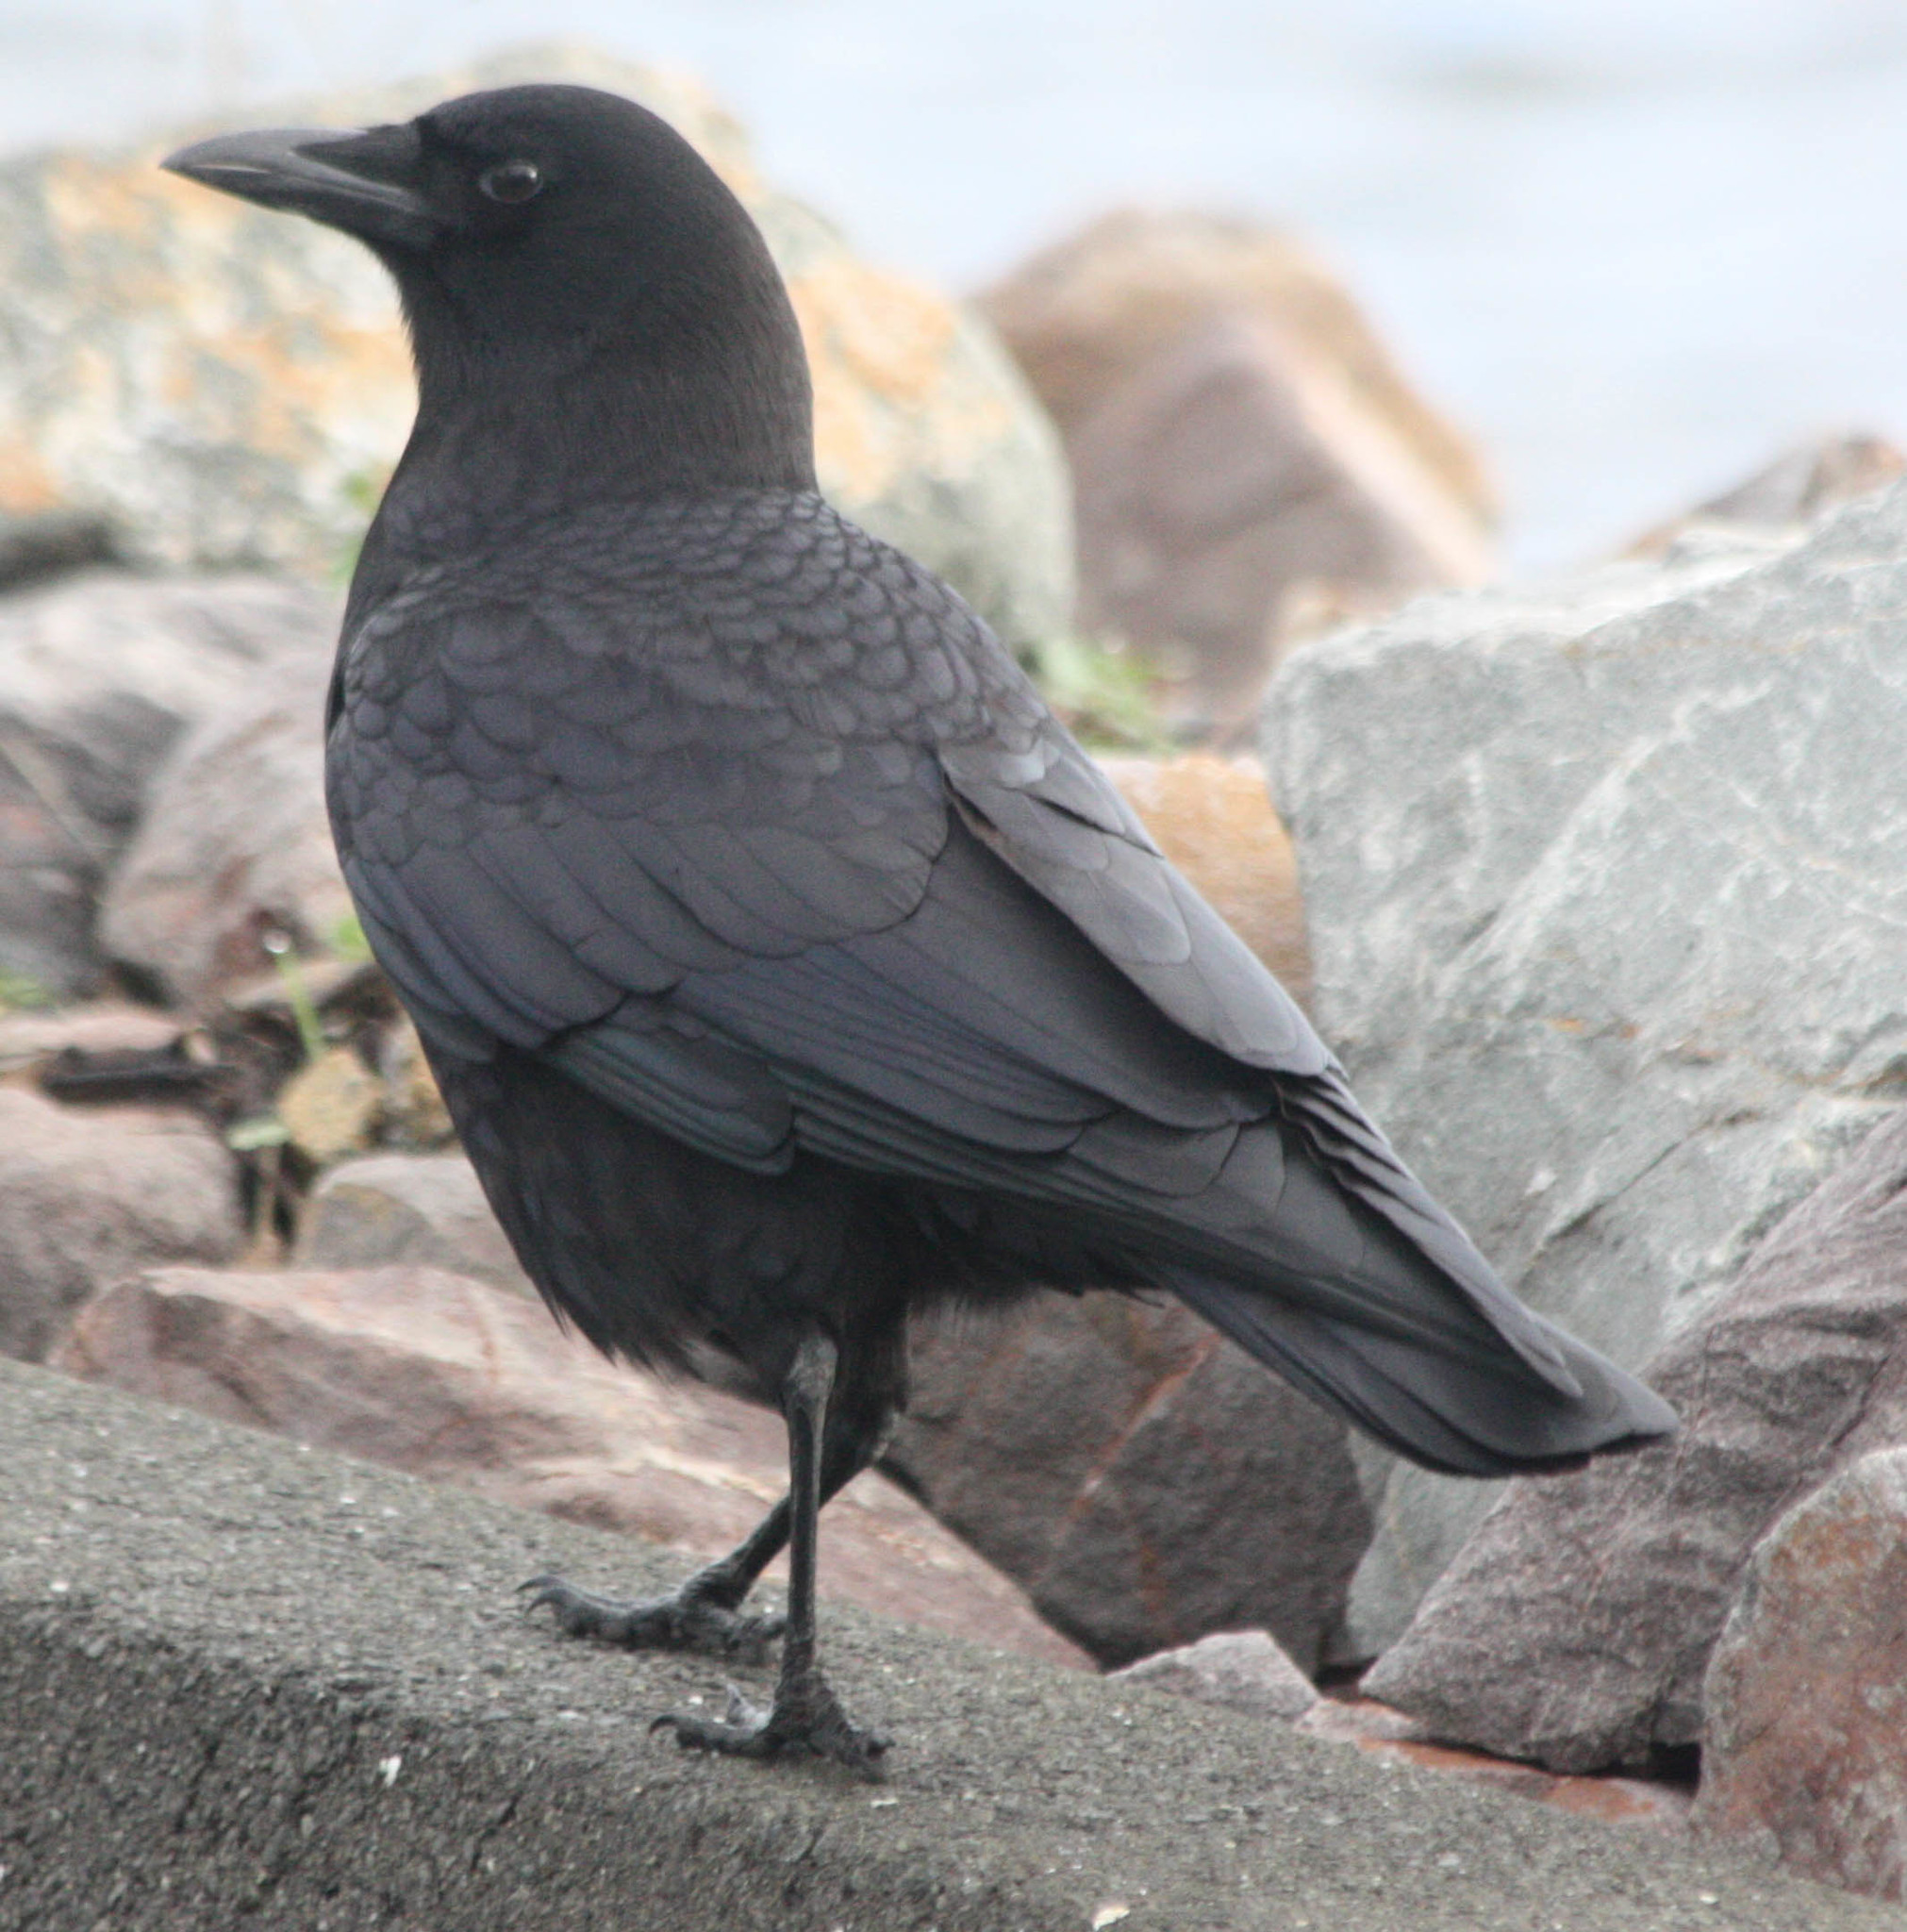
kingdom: Animalia
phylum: Chordata
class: Aves
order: Passeriformes
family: Corvidae
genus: Corvus
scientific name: Corvus brachyrhynchos
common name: American crow
